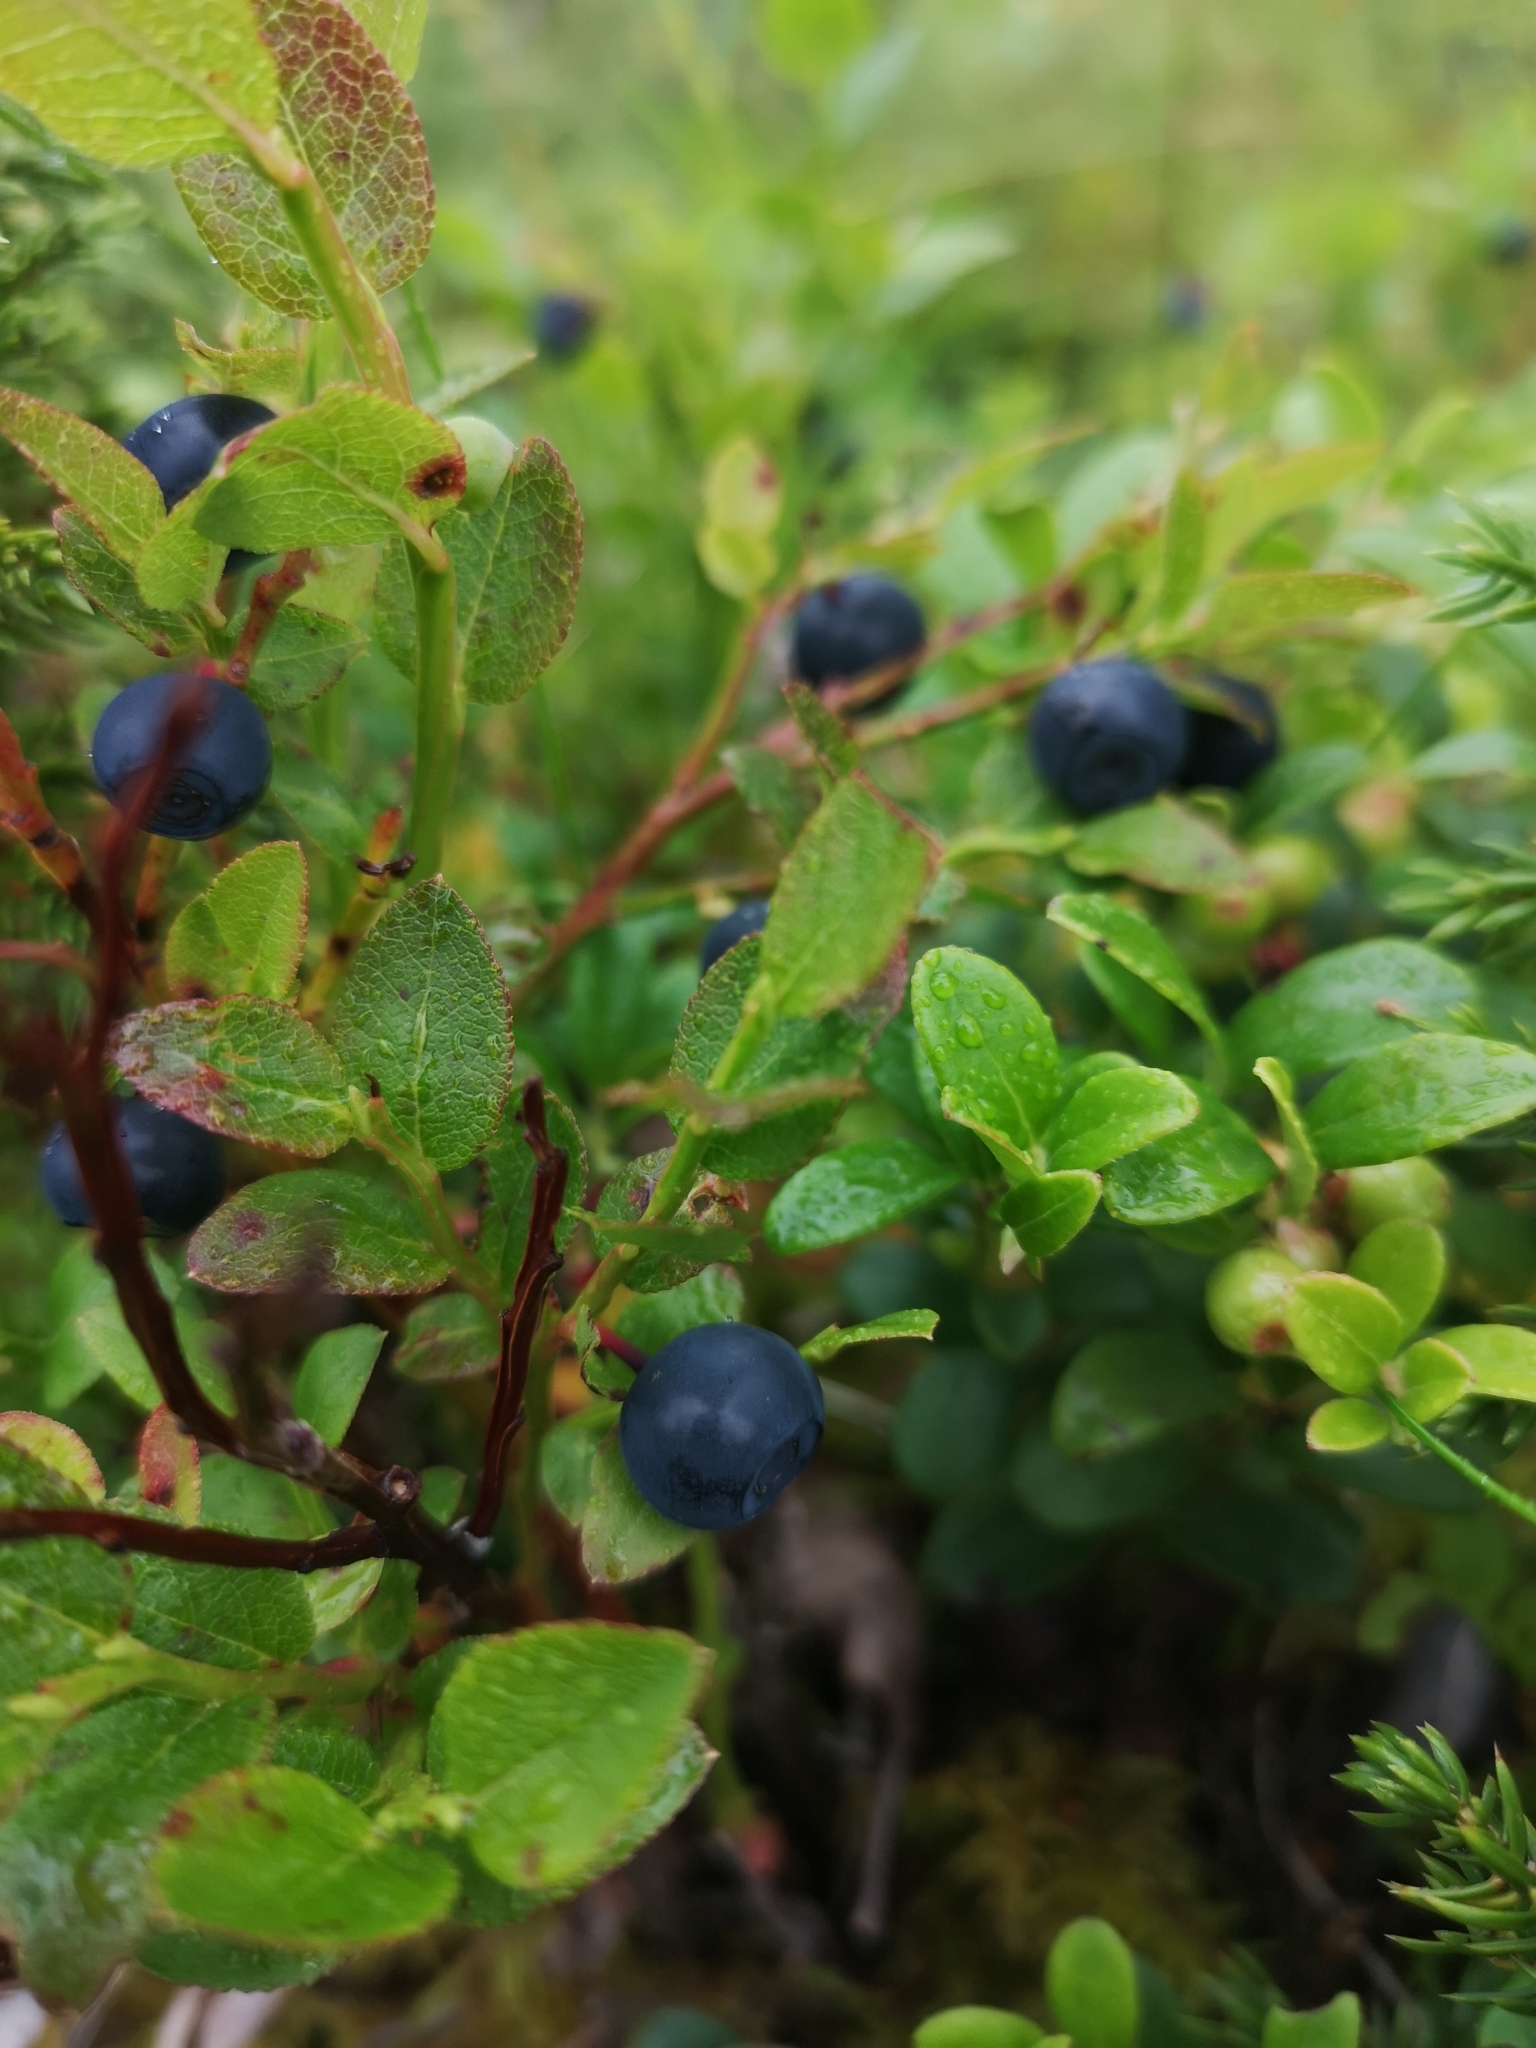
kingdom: Plantae
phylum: Tracheophyta
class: Magnoliopsida
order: Ericales
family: Ericaceae
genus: Vaccinium
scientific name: Vaccinium myrtillus
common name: Bilberry
